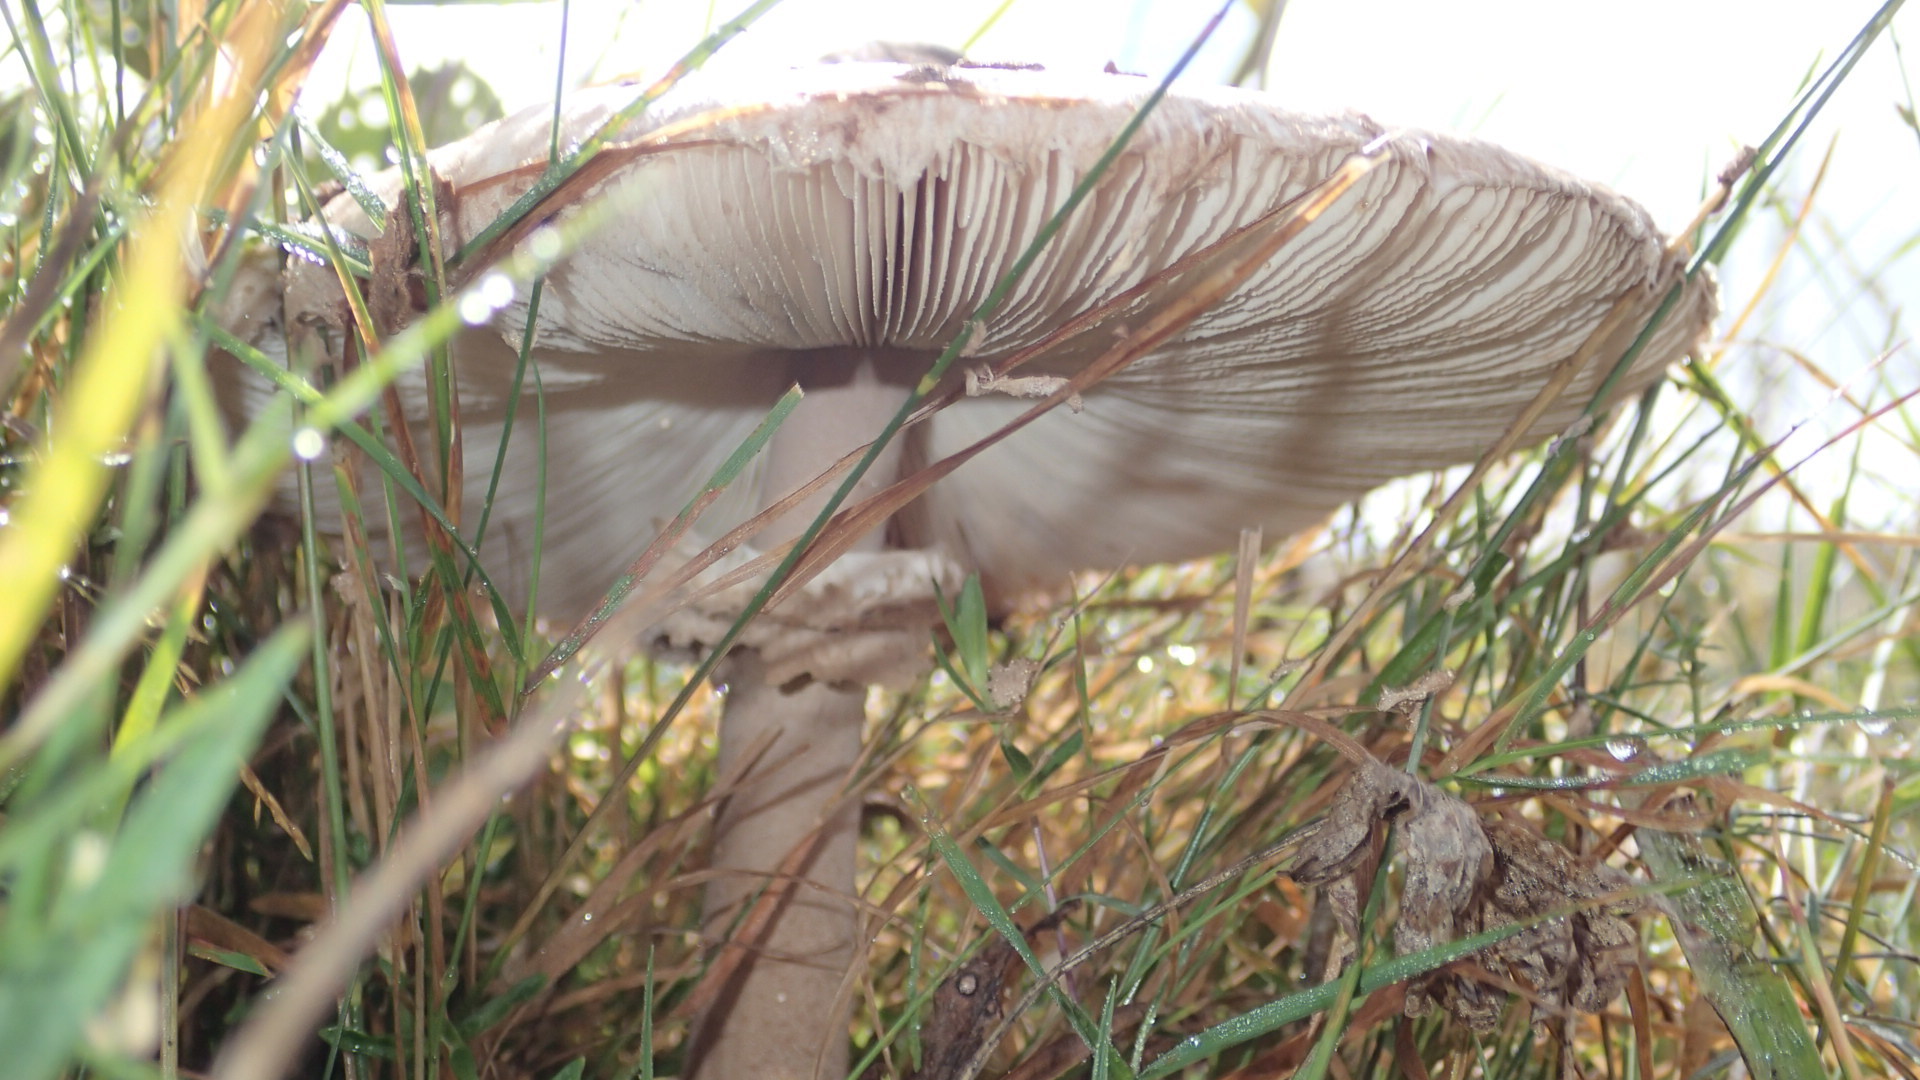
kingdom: Fungi
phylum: Basidiomycota
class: Agaricomycetes
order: Agaricales
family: Agaricaceae
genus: Macrolepiota
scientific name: Macrolepiota procera
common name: Parasol
